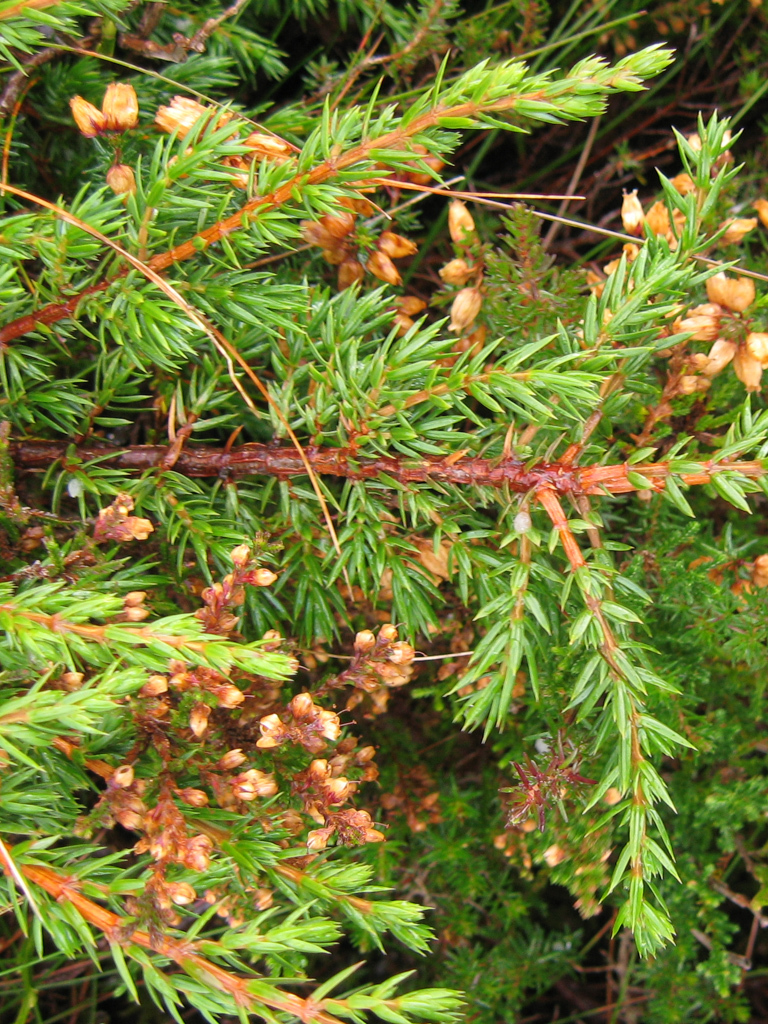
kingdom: Plantae
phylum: Tracheophyta
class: Pinopsida
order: Pinales
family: Cupressaceae
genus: Juniperus
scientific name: Juniperus communis
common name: Common juniper
